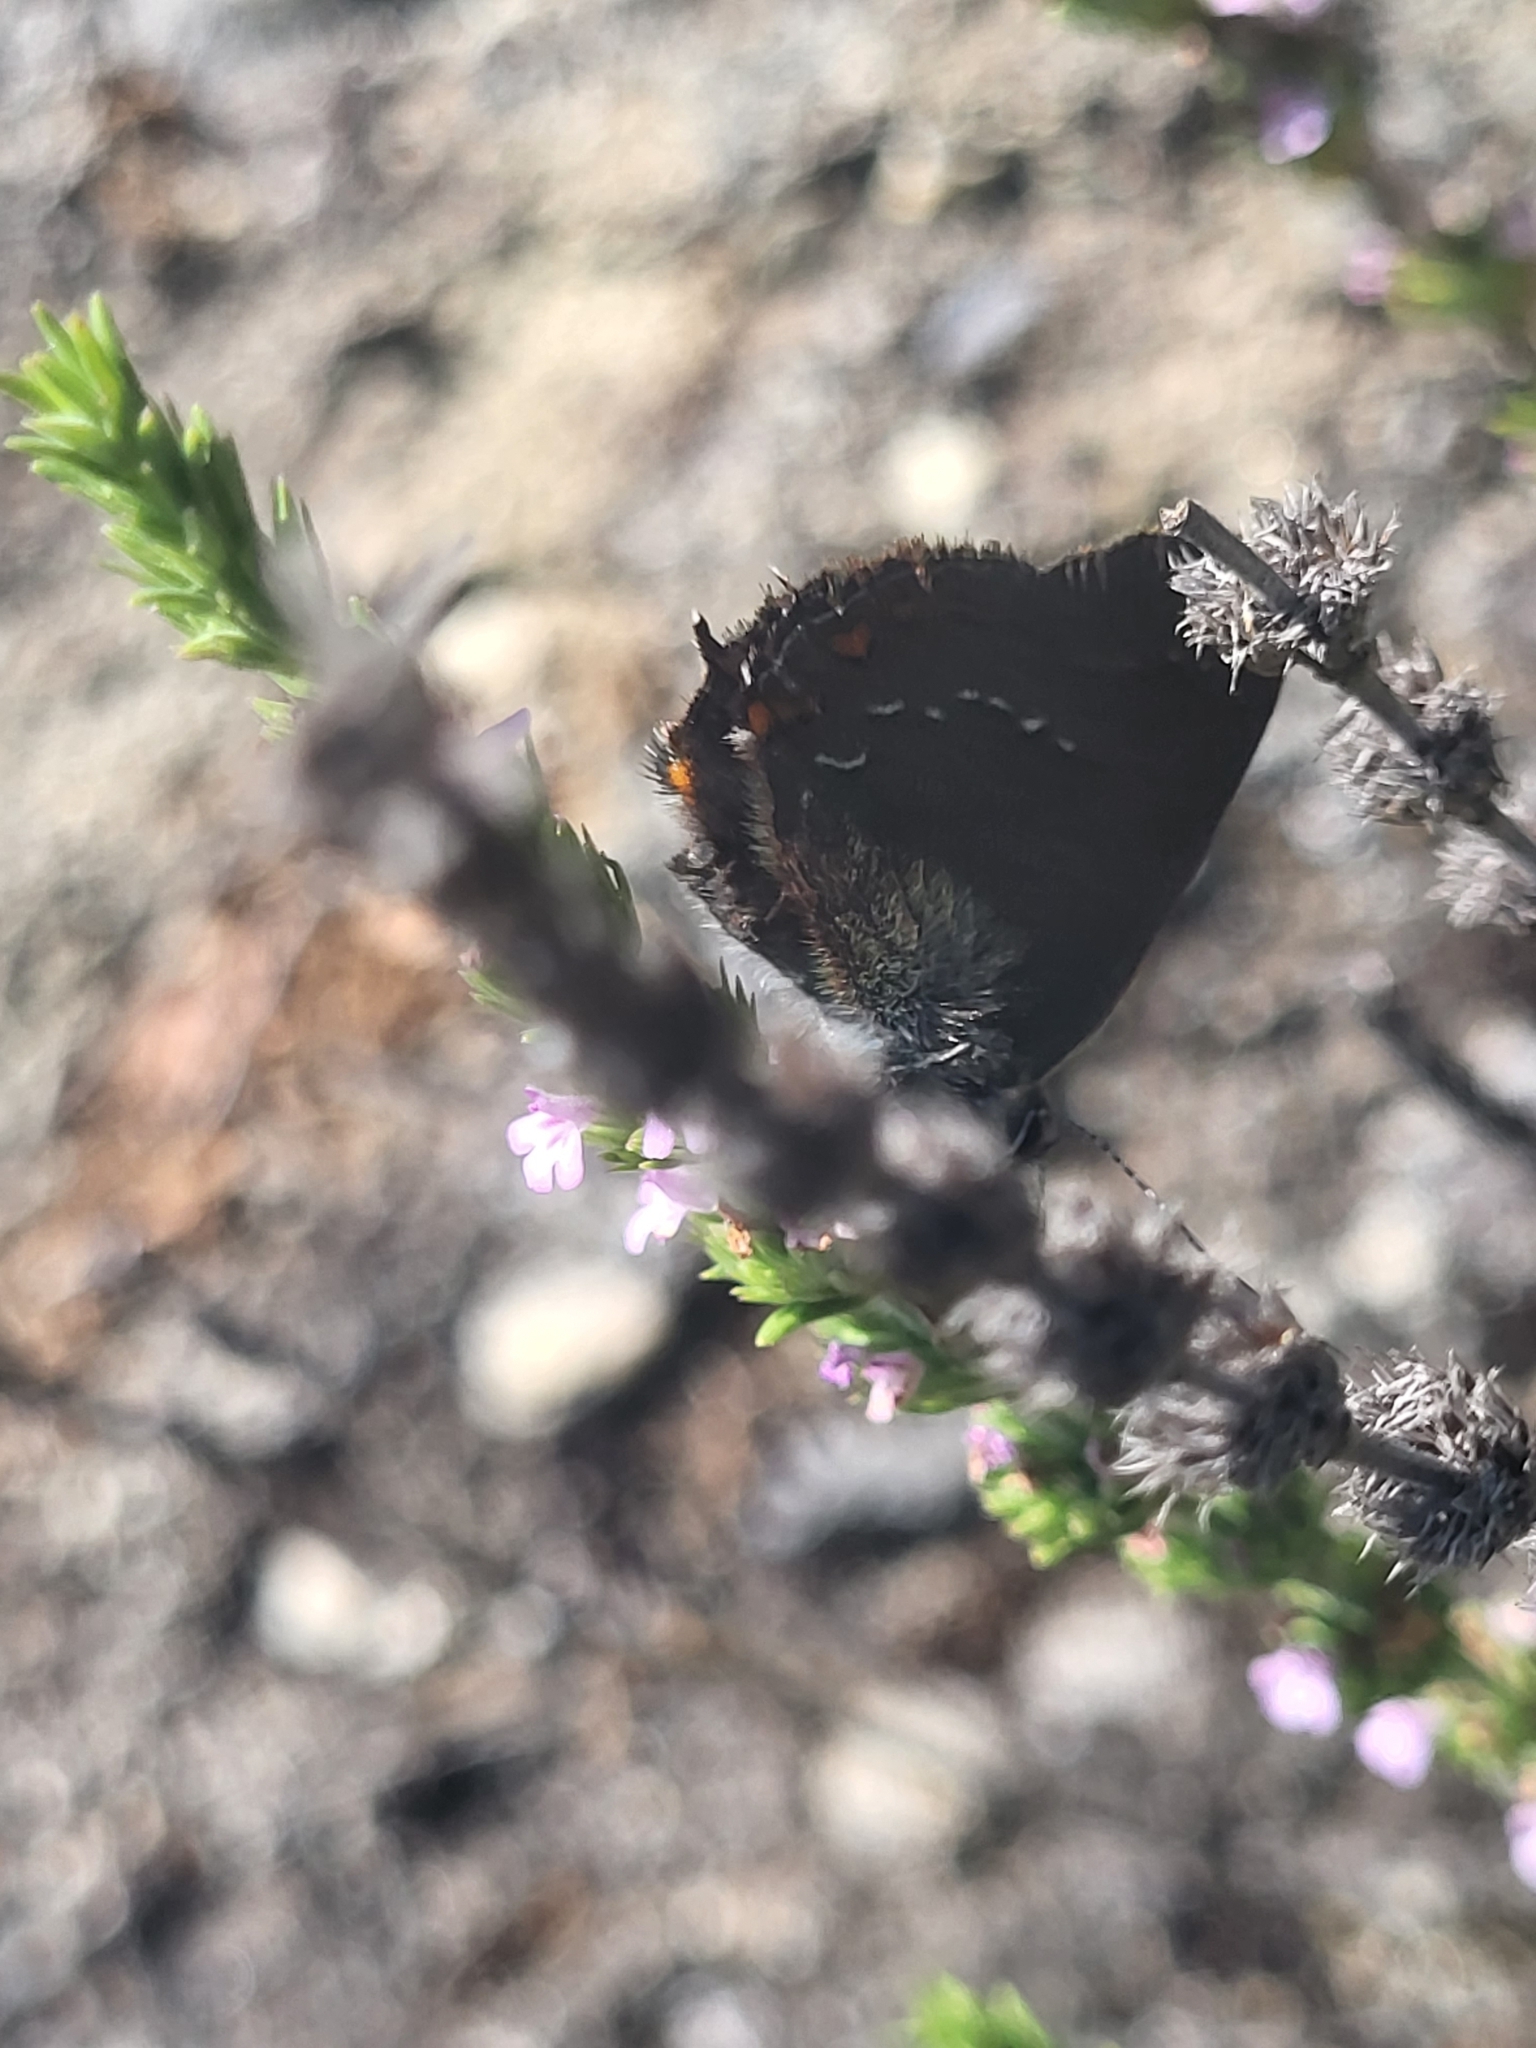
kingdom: Animalia
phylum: Arthropoda
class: Insecta
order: Lepidoptera
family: Lycaenidae
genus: Nordmannia
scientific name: Nordmannia ilicis
